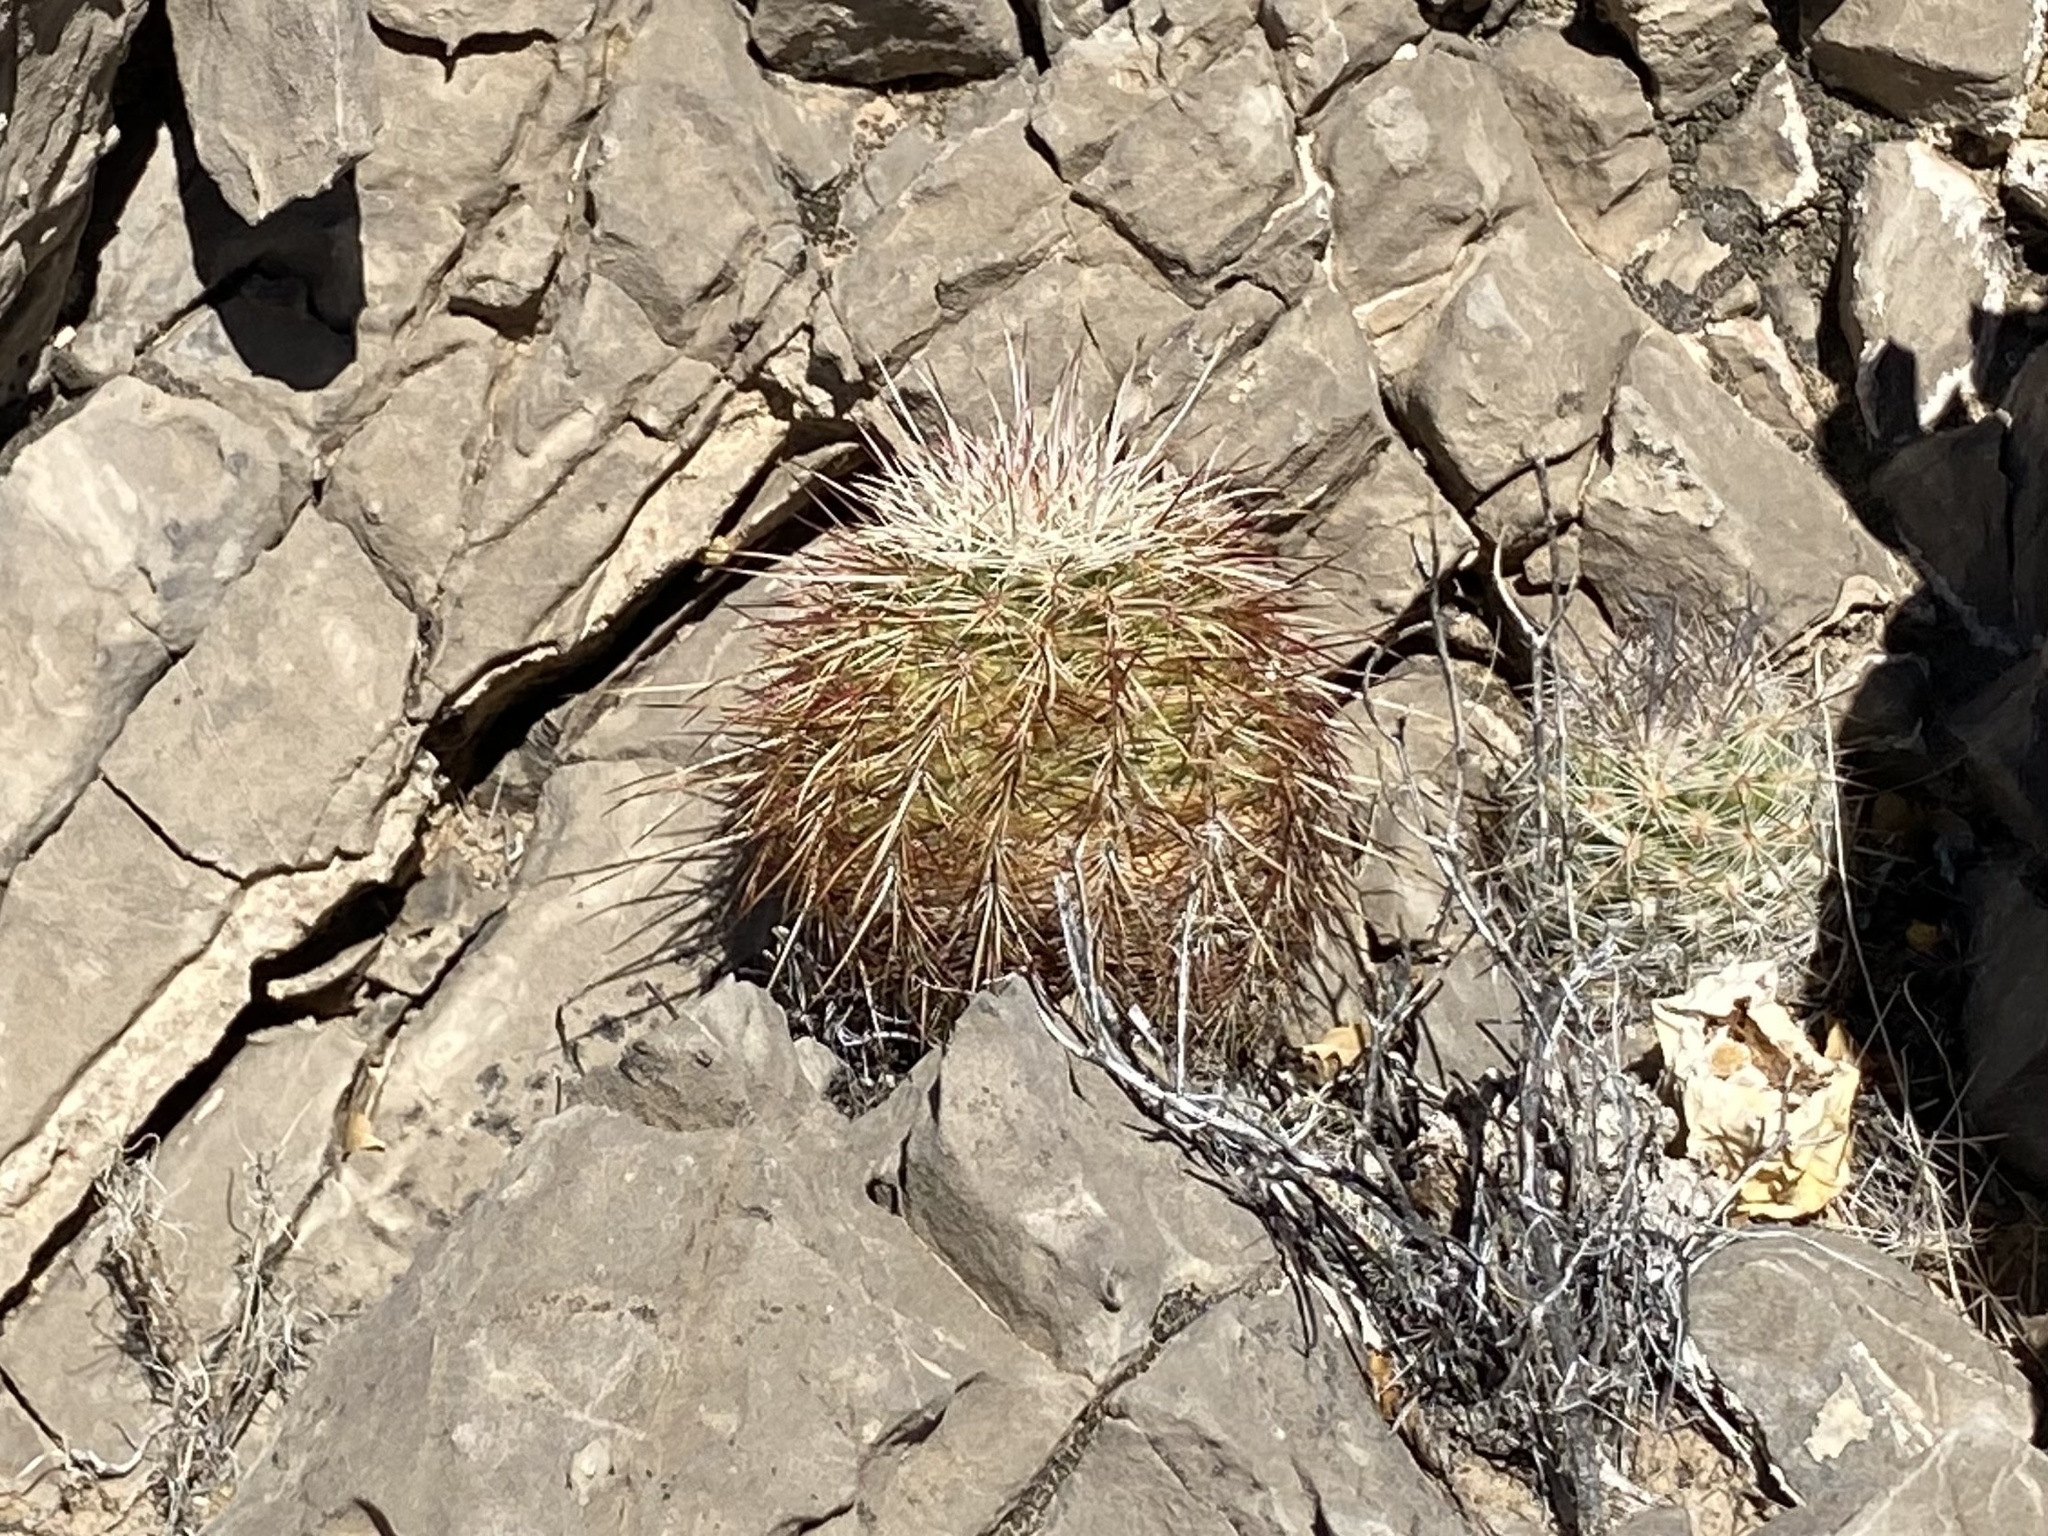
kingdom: Plantae
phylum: Tracheophyta
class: Magnoliopsida
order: Caryophyllales
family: Cactaceae
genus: Echinocereus
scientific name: Echinocereus viridiflorus
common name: Nylon hedgehog cactus
